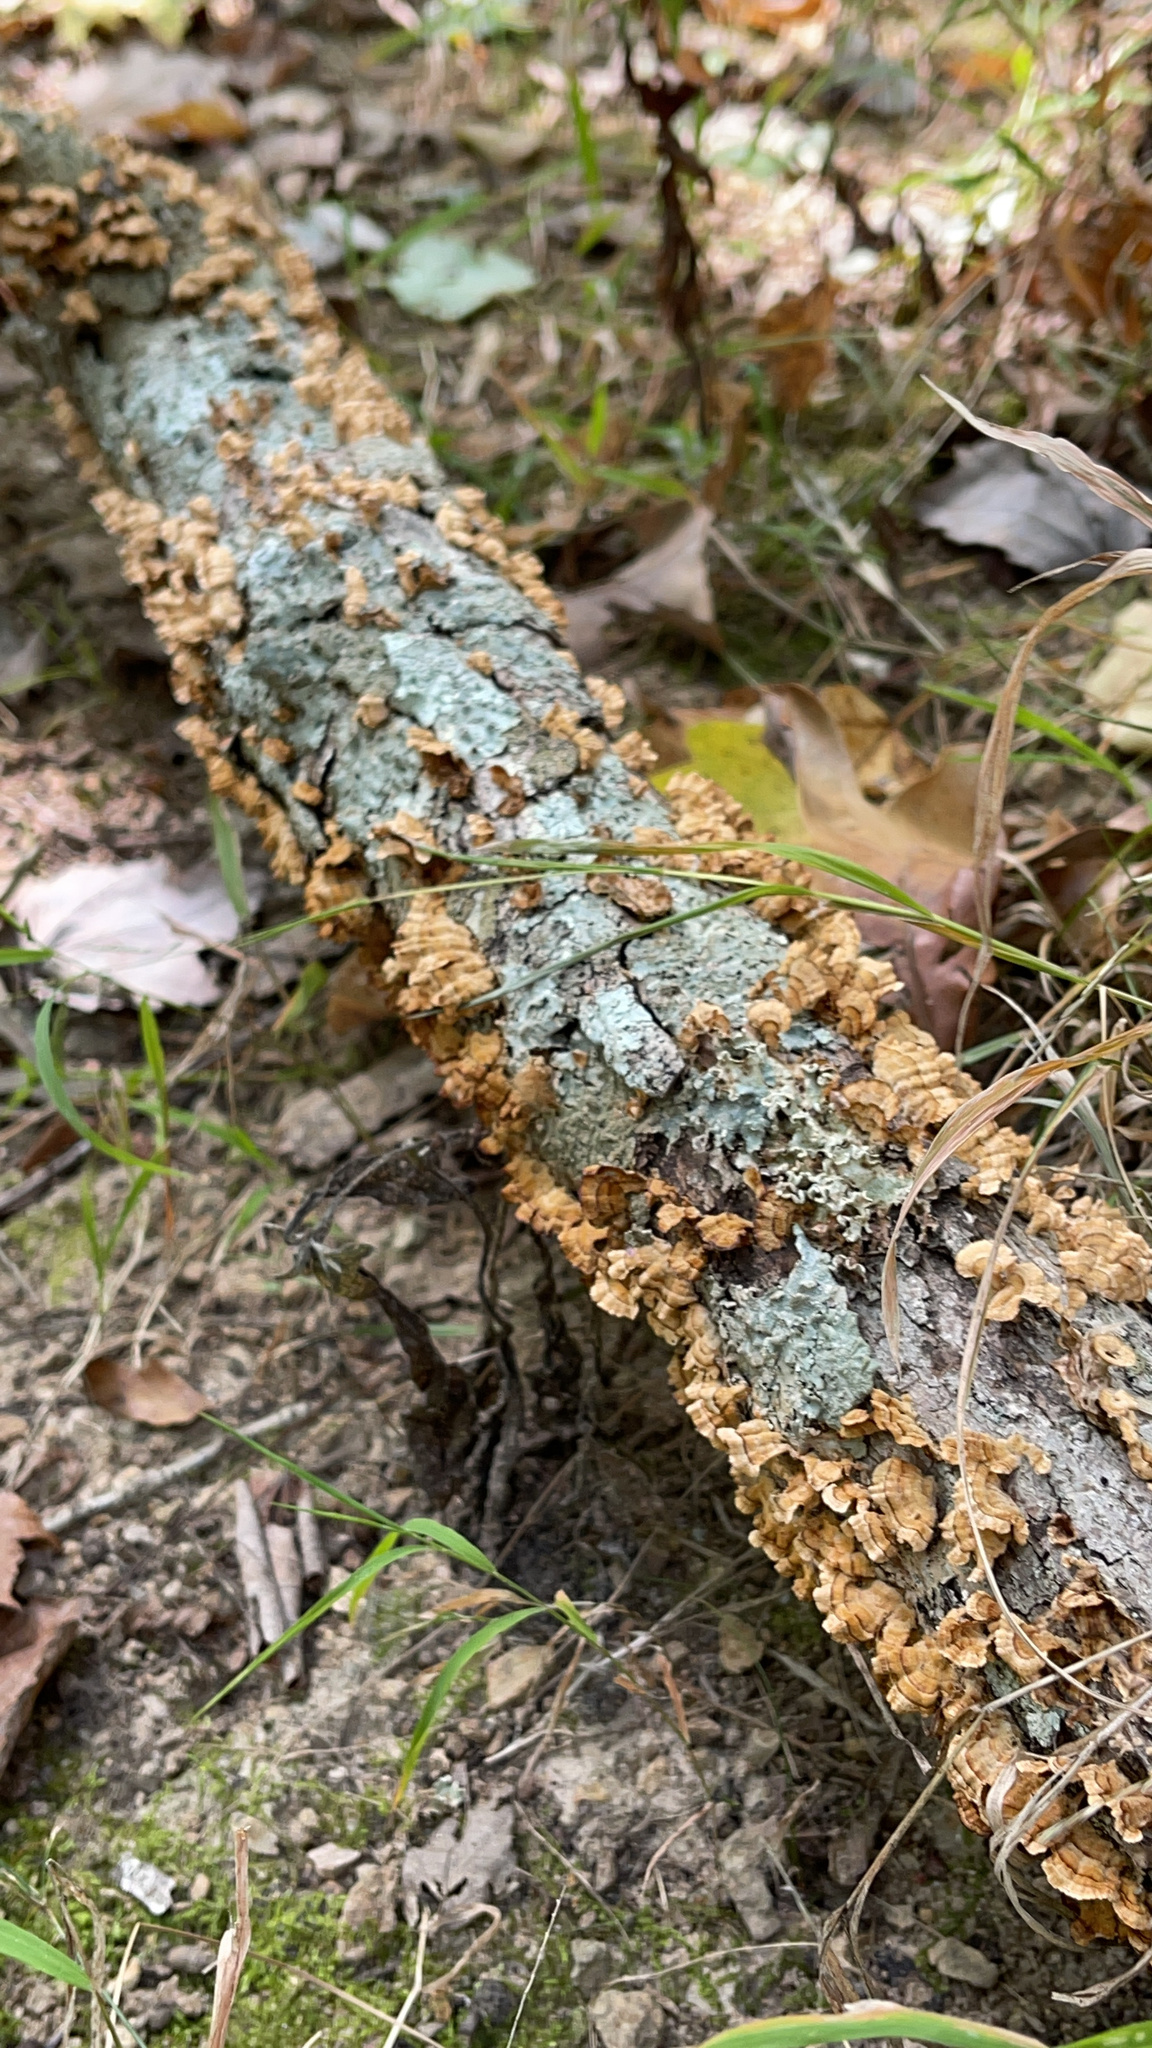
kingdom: Fungi
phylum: Basidiomycota
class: Agaricomycetes
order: Russulales
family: Stereaceae
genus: Stereum
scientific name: Stereum complicatum
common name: Crowded parchment
